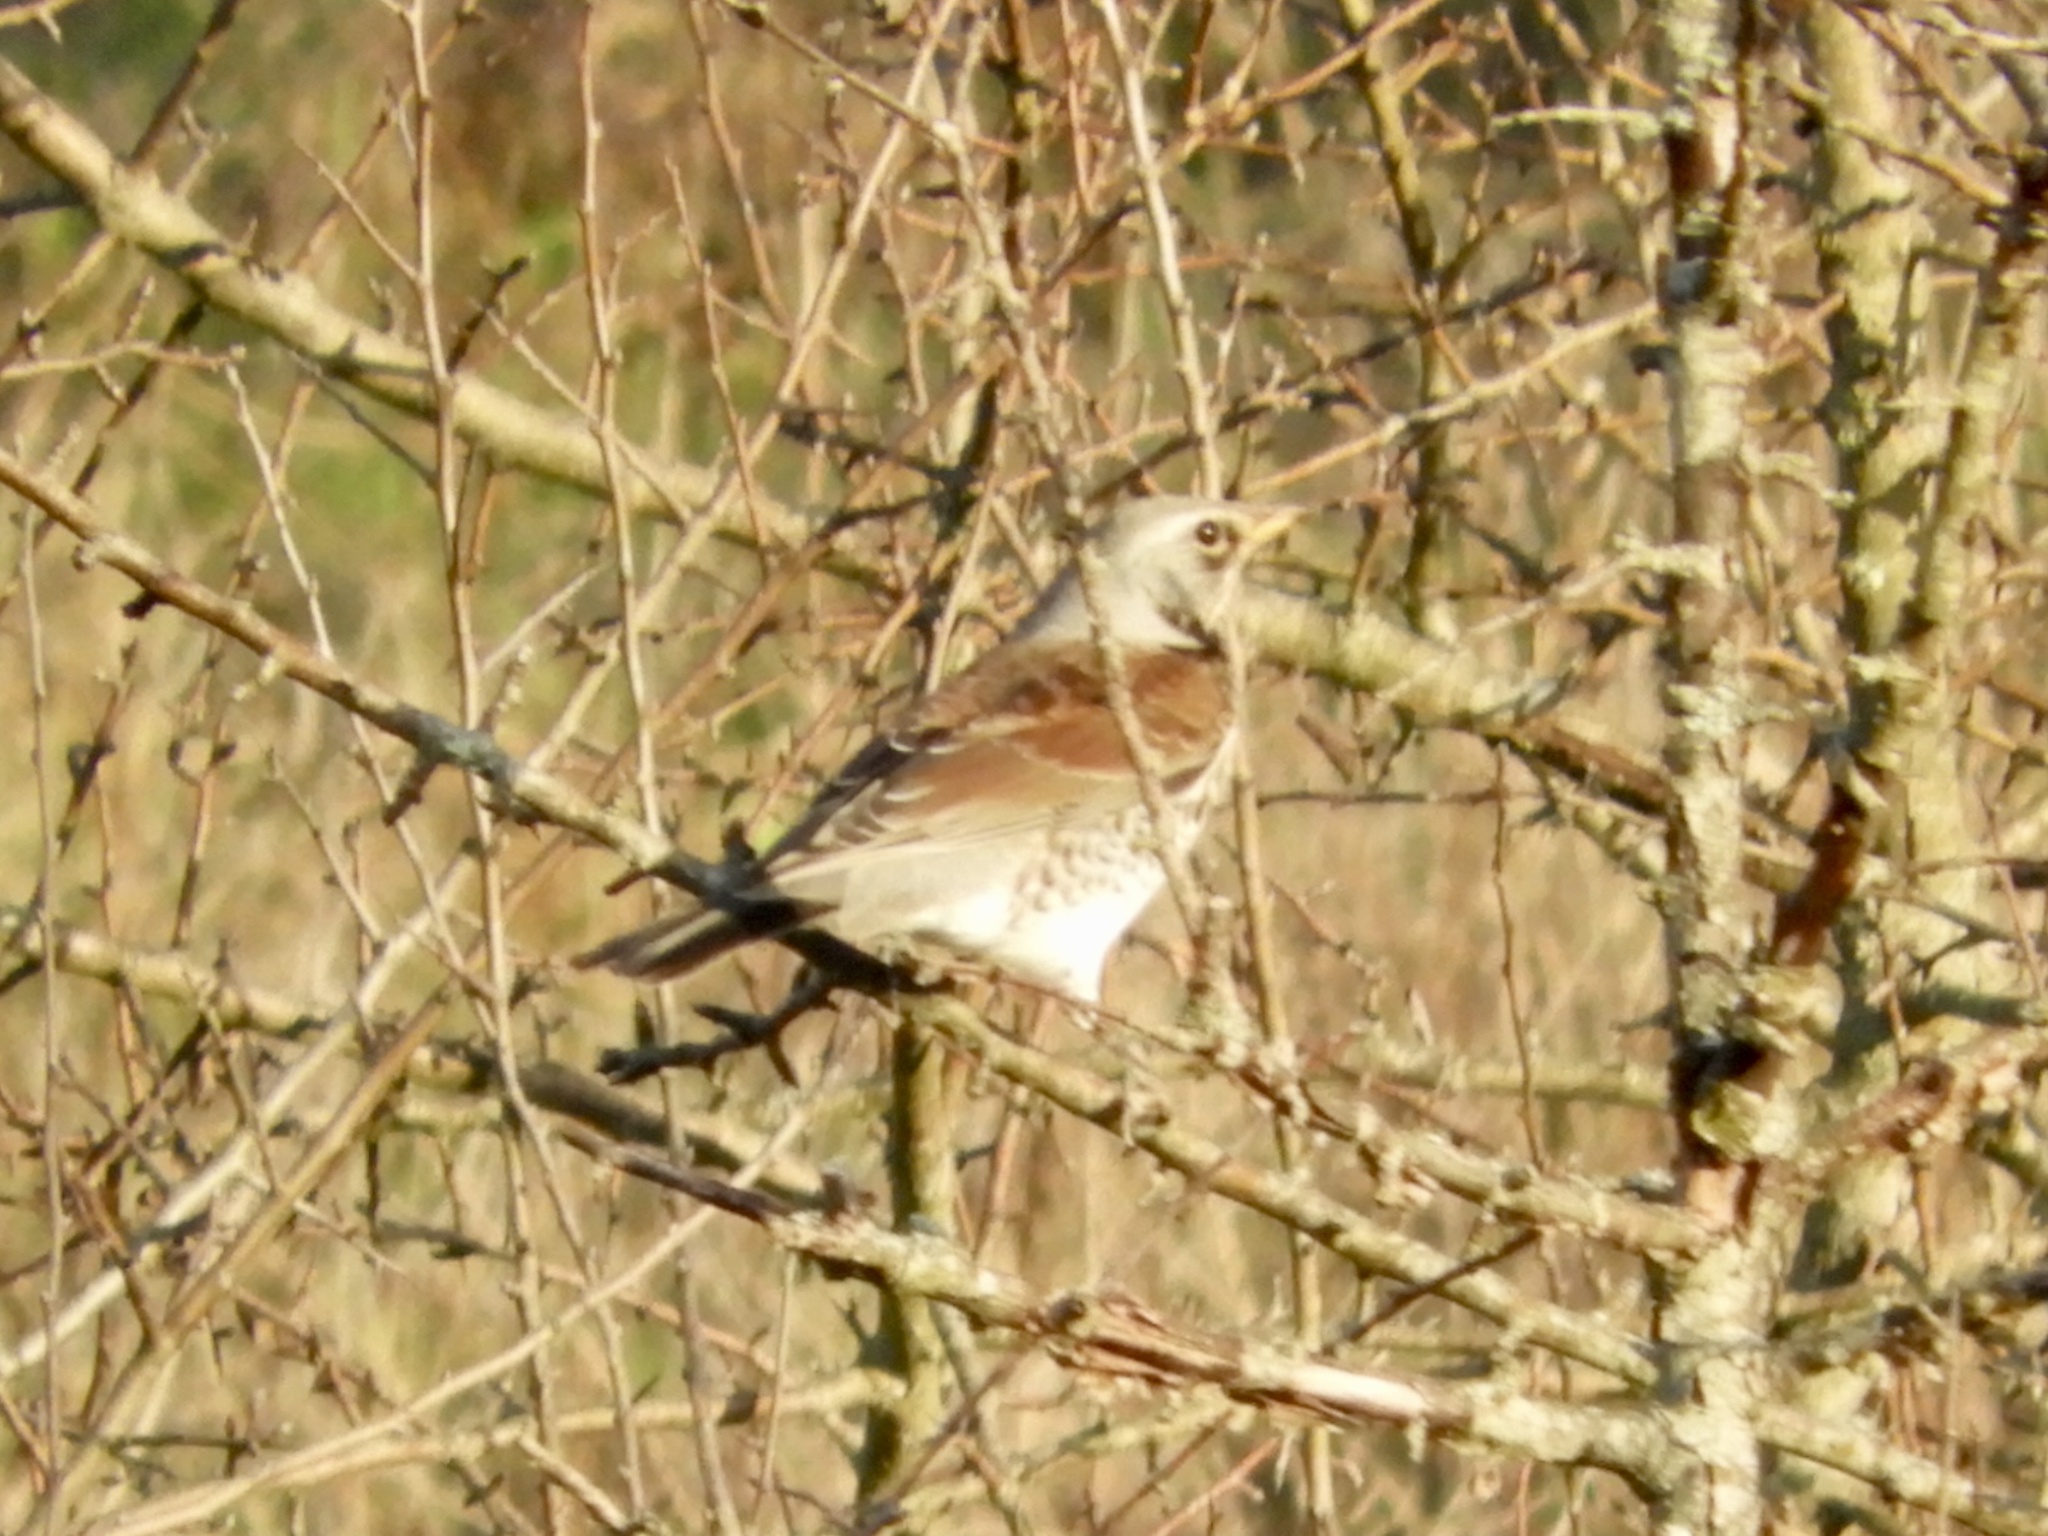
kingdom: Animalia
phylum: Chordata
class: Aves
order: Passeriformes
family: Turdidae
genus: Turdus
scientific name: Turdus pilaris
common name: Fieldfare
